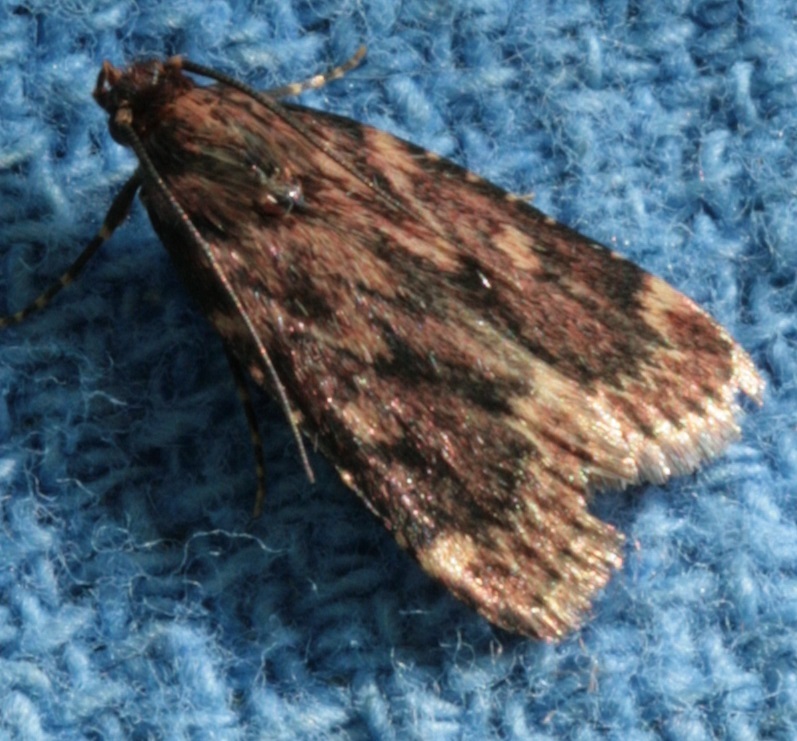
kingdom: Animalia
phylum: Arthropoda
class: Insecta
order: Lepidoptera
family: Pyralidae
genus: Aglossa
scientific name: Aglossa cuprina
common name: Grease moth
